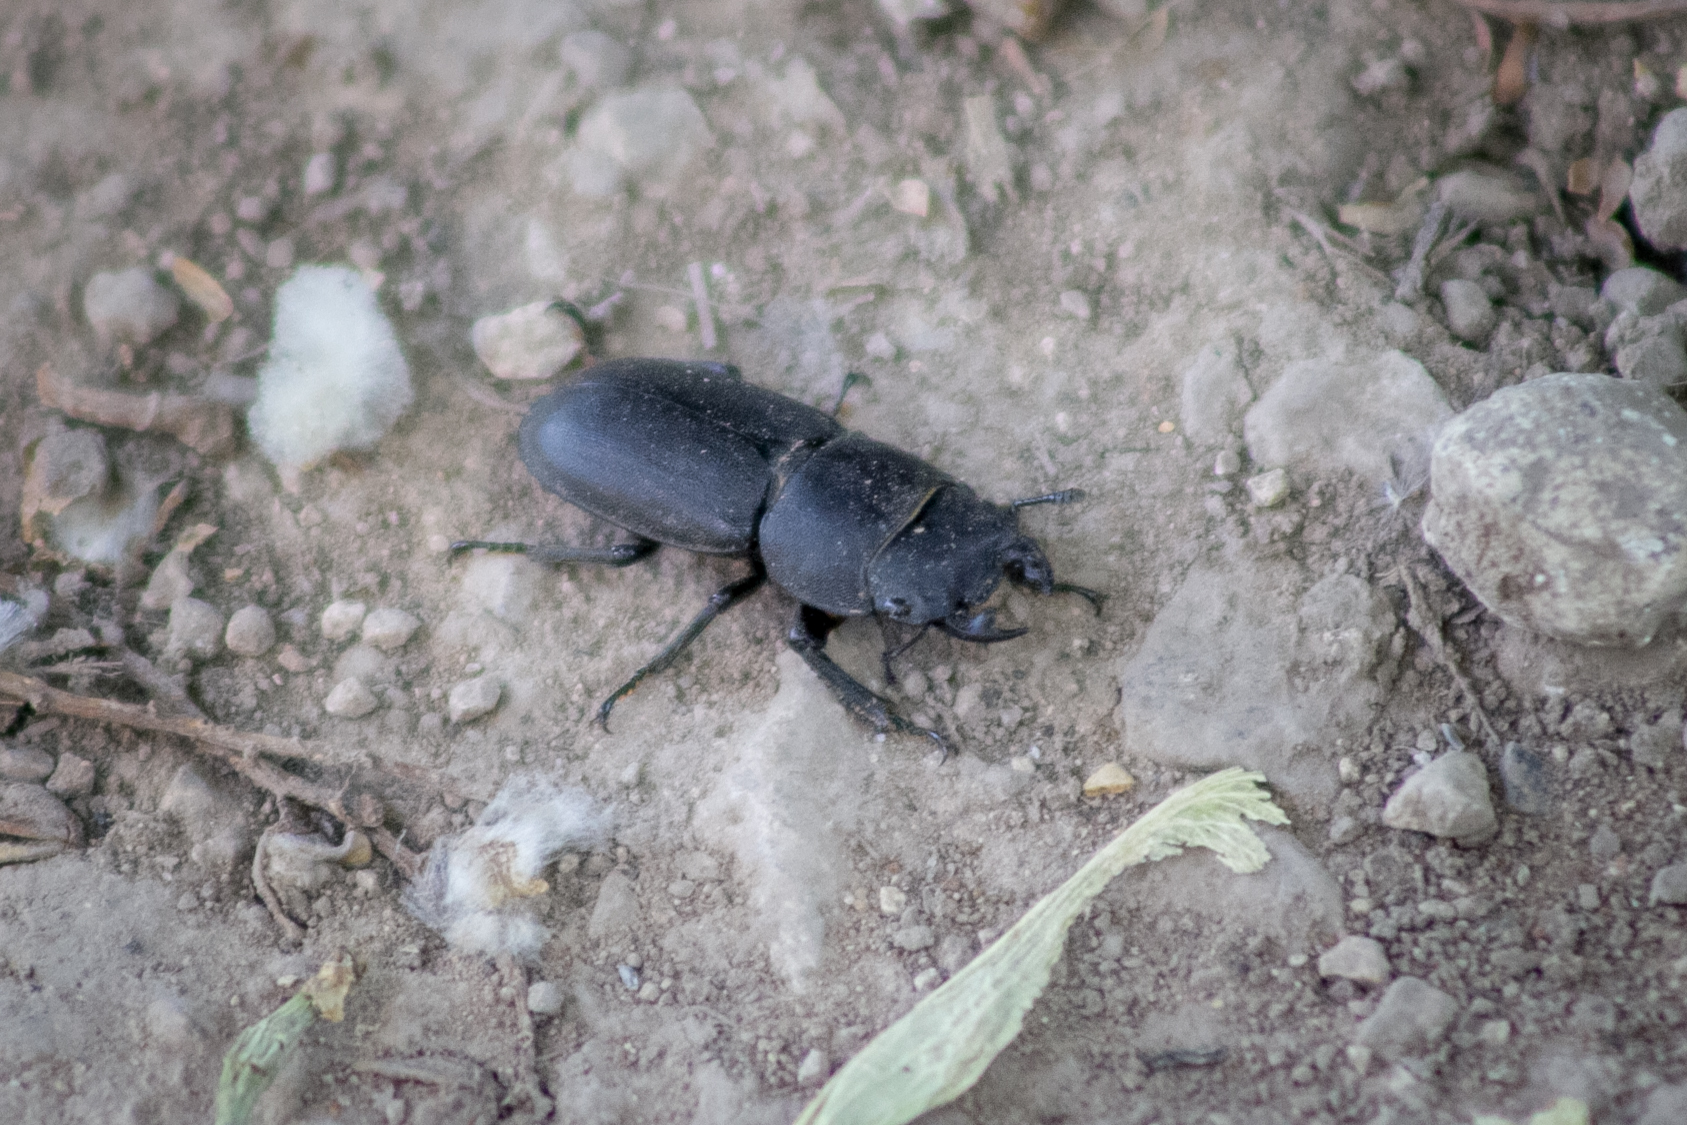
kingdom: Animalia
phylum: Arthropoda
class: Insecta
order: Coleoptera
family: Lucanidae
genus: Dorcus
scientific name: Dorcus parallelipipedus
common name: Lesser stag beetle
